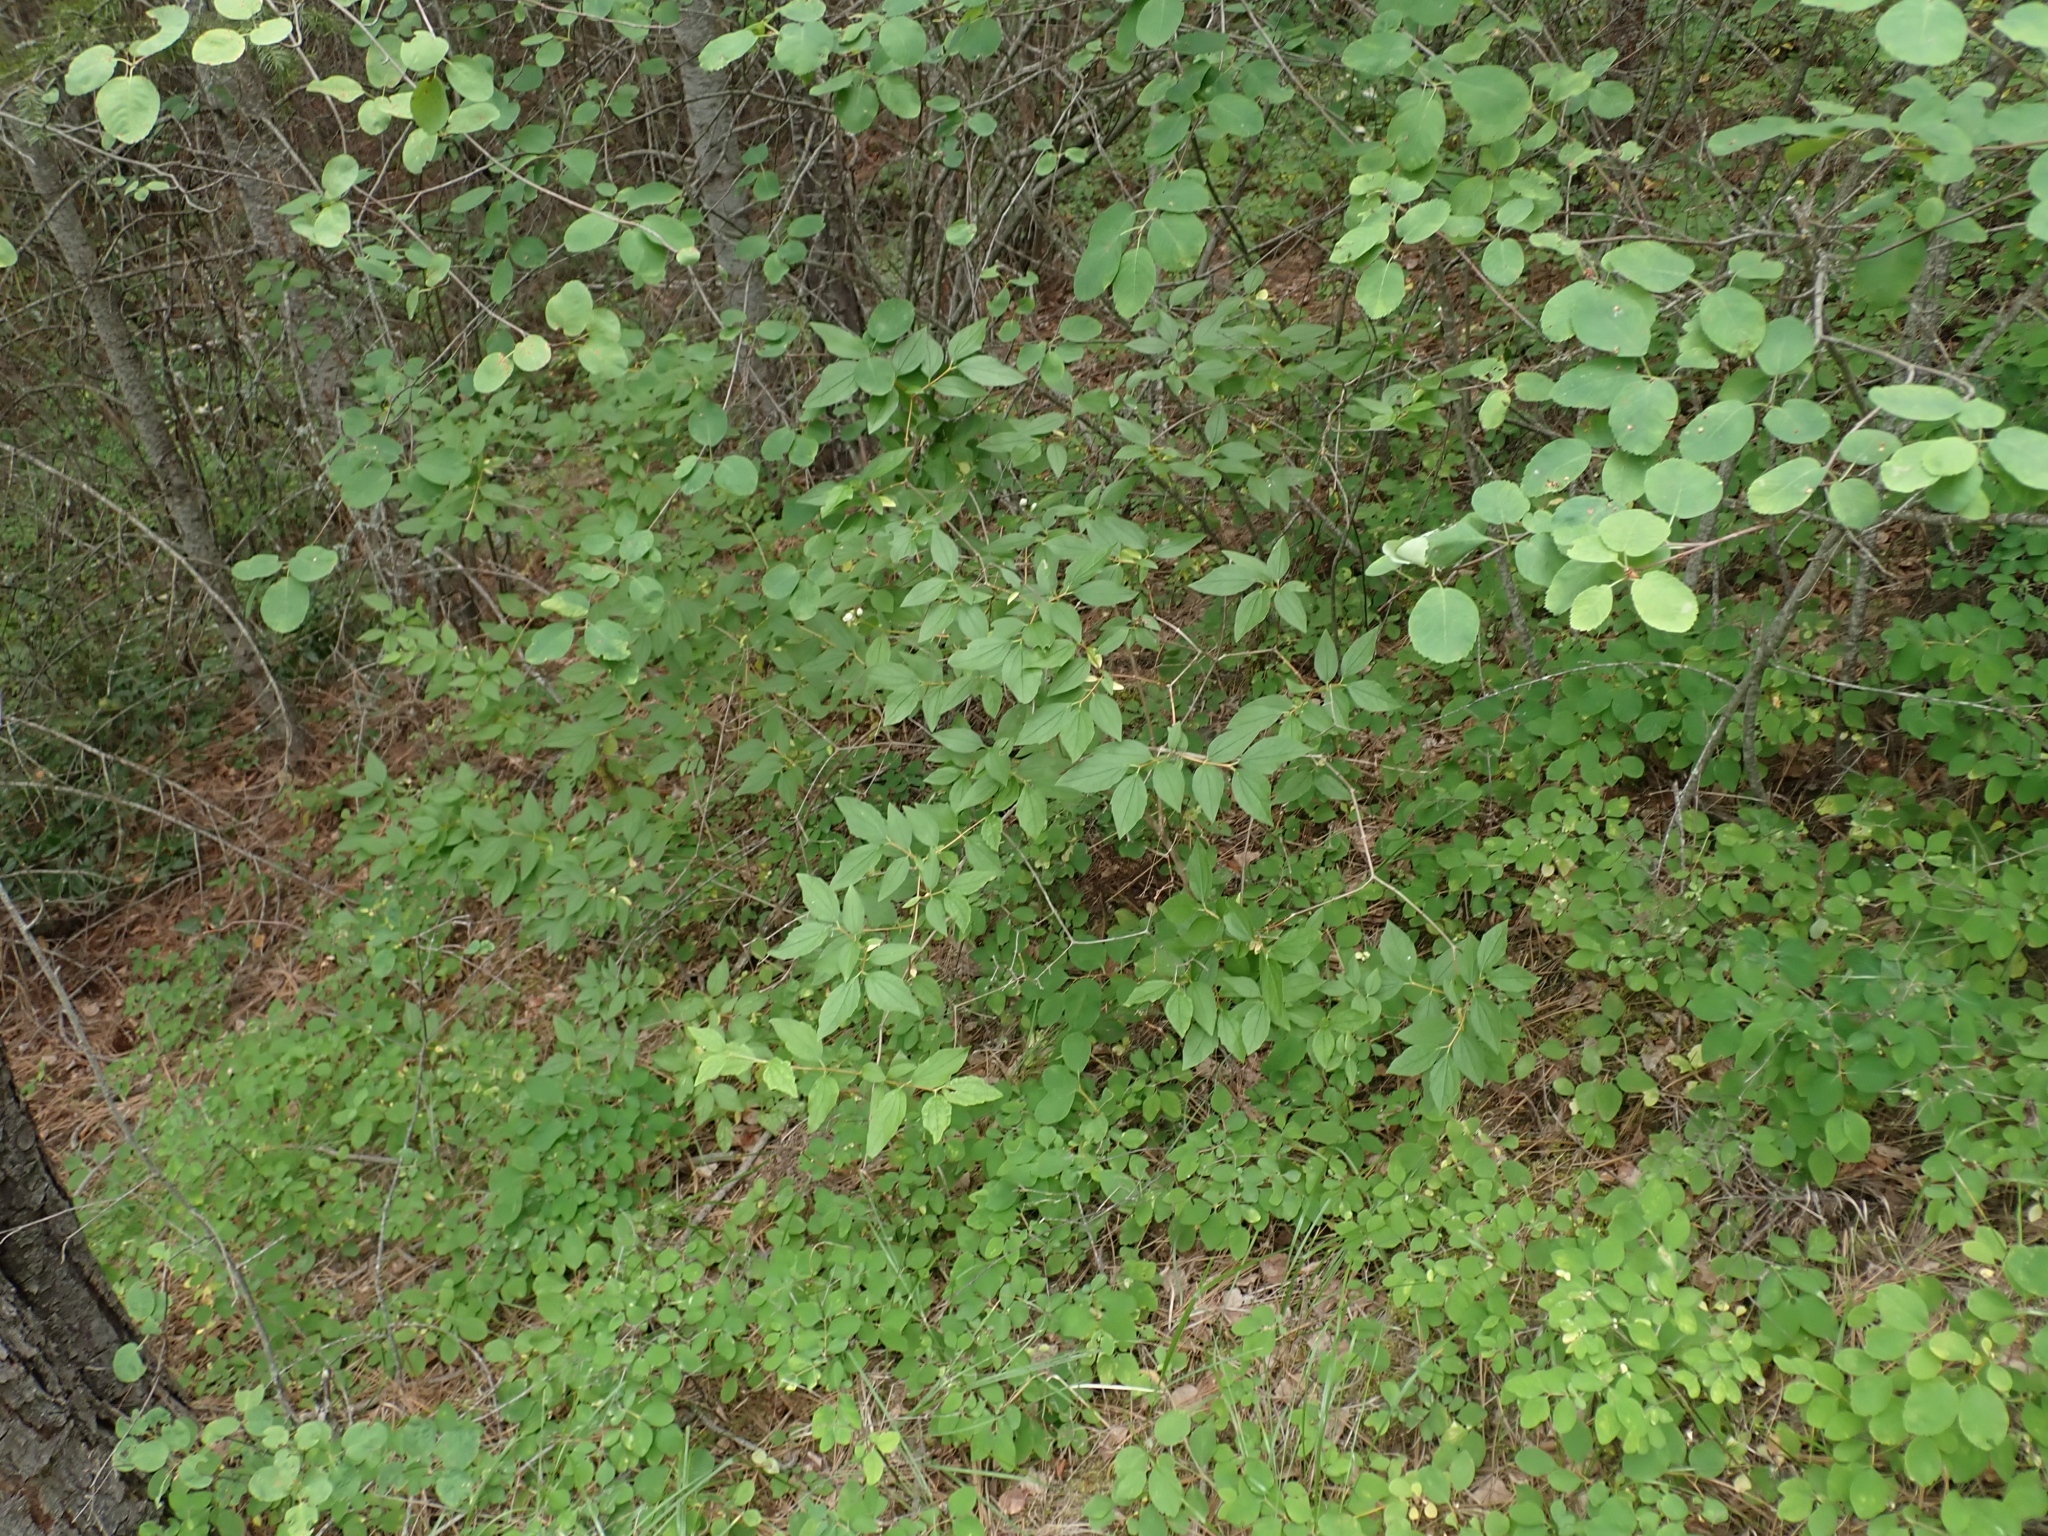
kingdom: Plantae
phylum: Tracheophyta
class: Magnoliopsida
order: Cornales
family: Hydrangeaceae
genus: Philadelphus
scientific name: Philadelphus lewisii
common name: Lewis's mock orange
